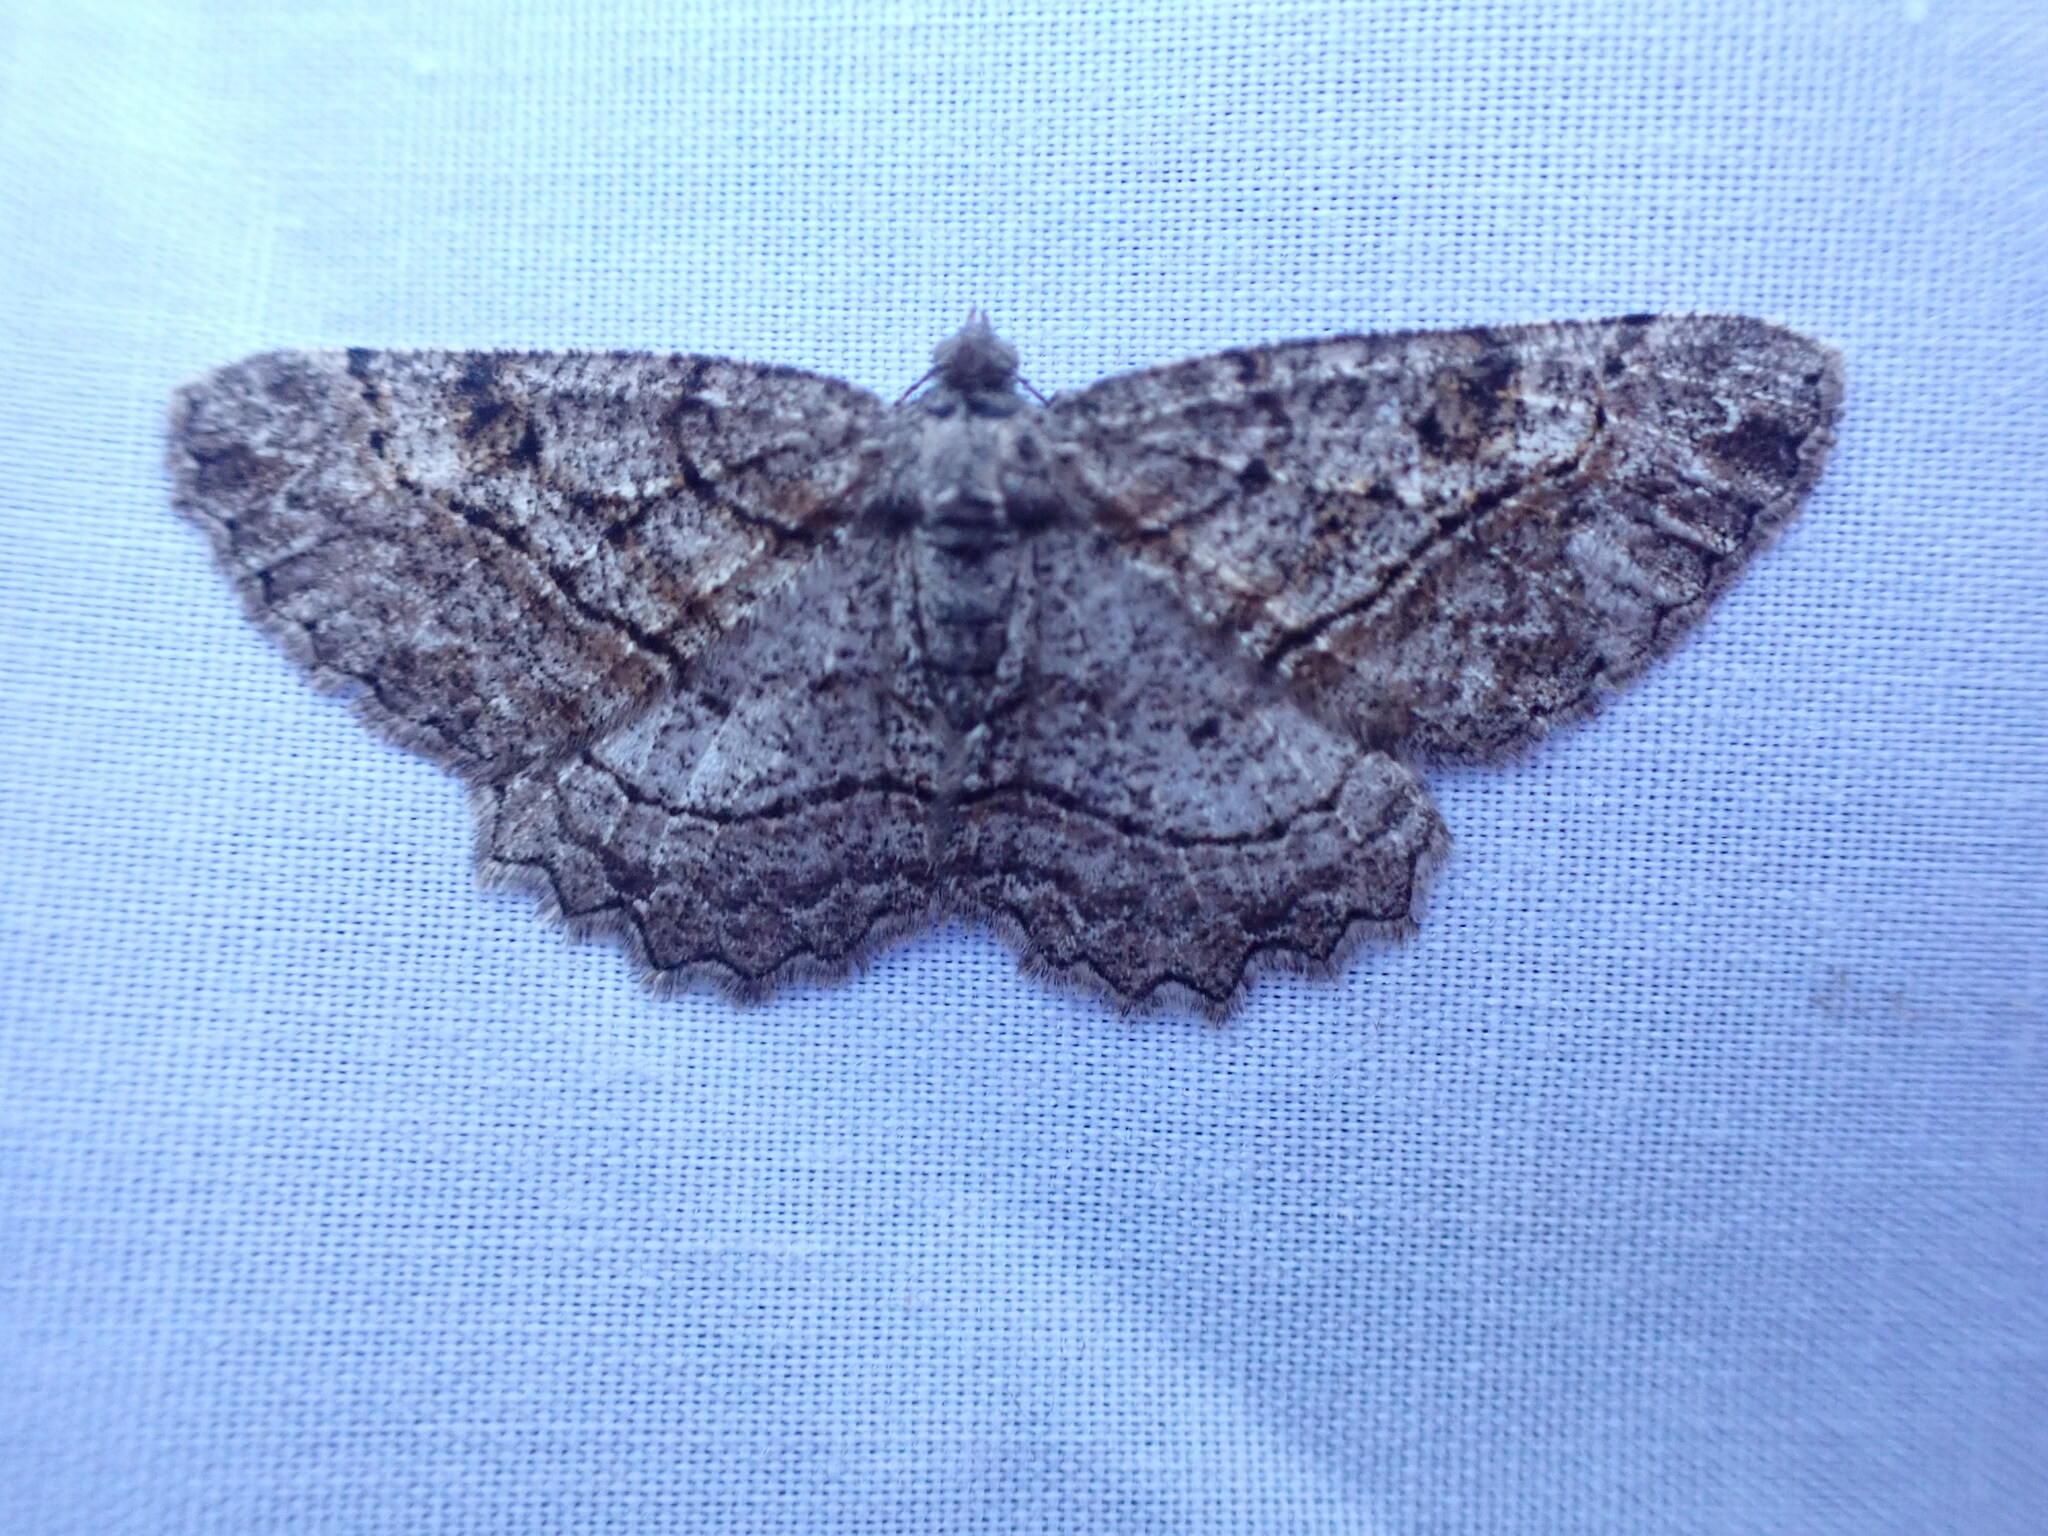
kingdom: Animalia
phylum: Arthropoda
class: Insecta
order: Lepidoptera
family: Geometridae
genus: Neoalcis
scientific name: Neoalcis californiaria
